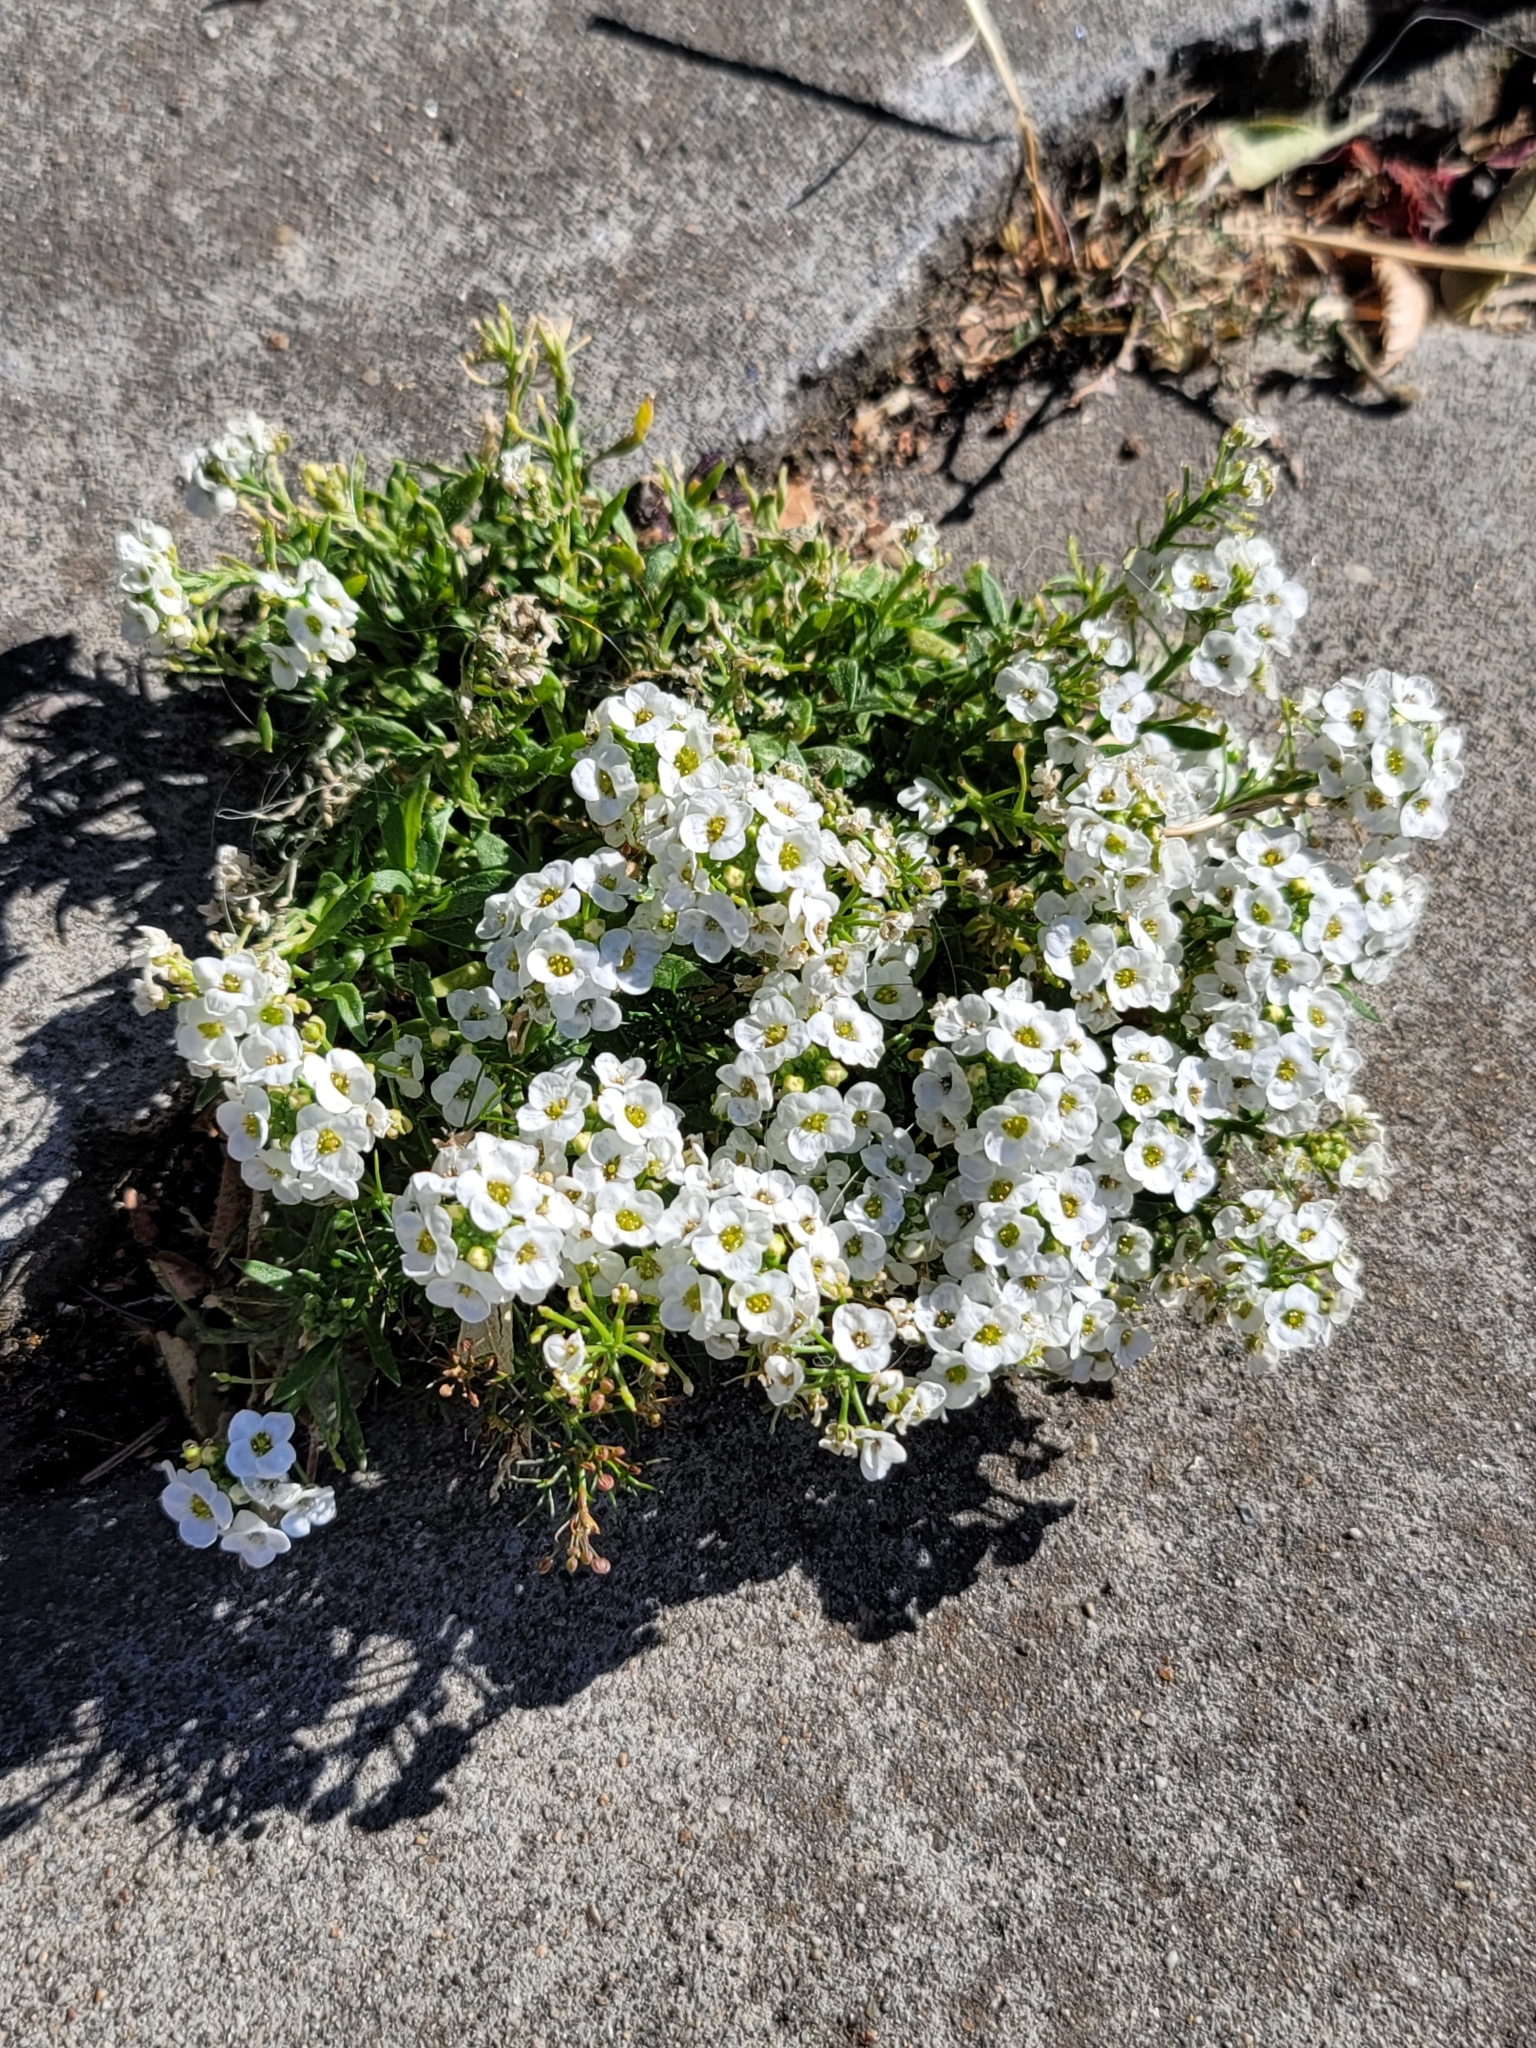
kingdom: Plantae
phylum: Tracheophyta
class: Magnoliopsida
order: Brassicales
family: Brassicaceae
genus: Lobularia
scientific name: Lobularia maritima
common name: Sweet alison
